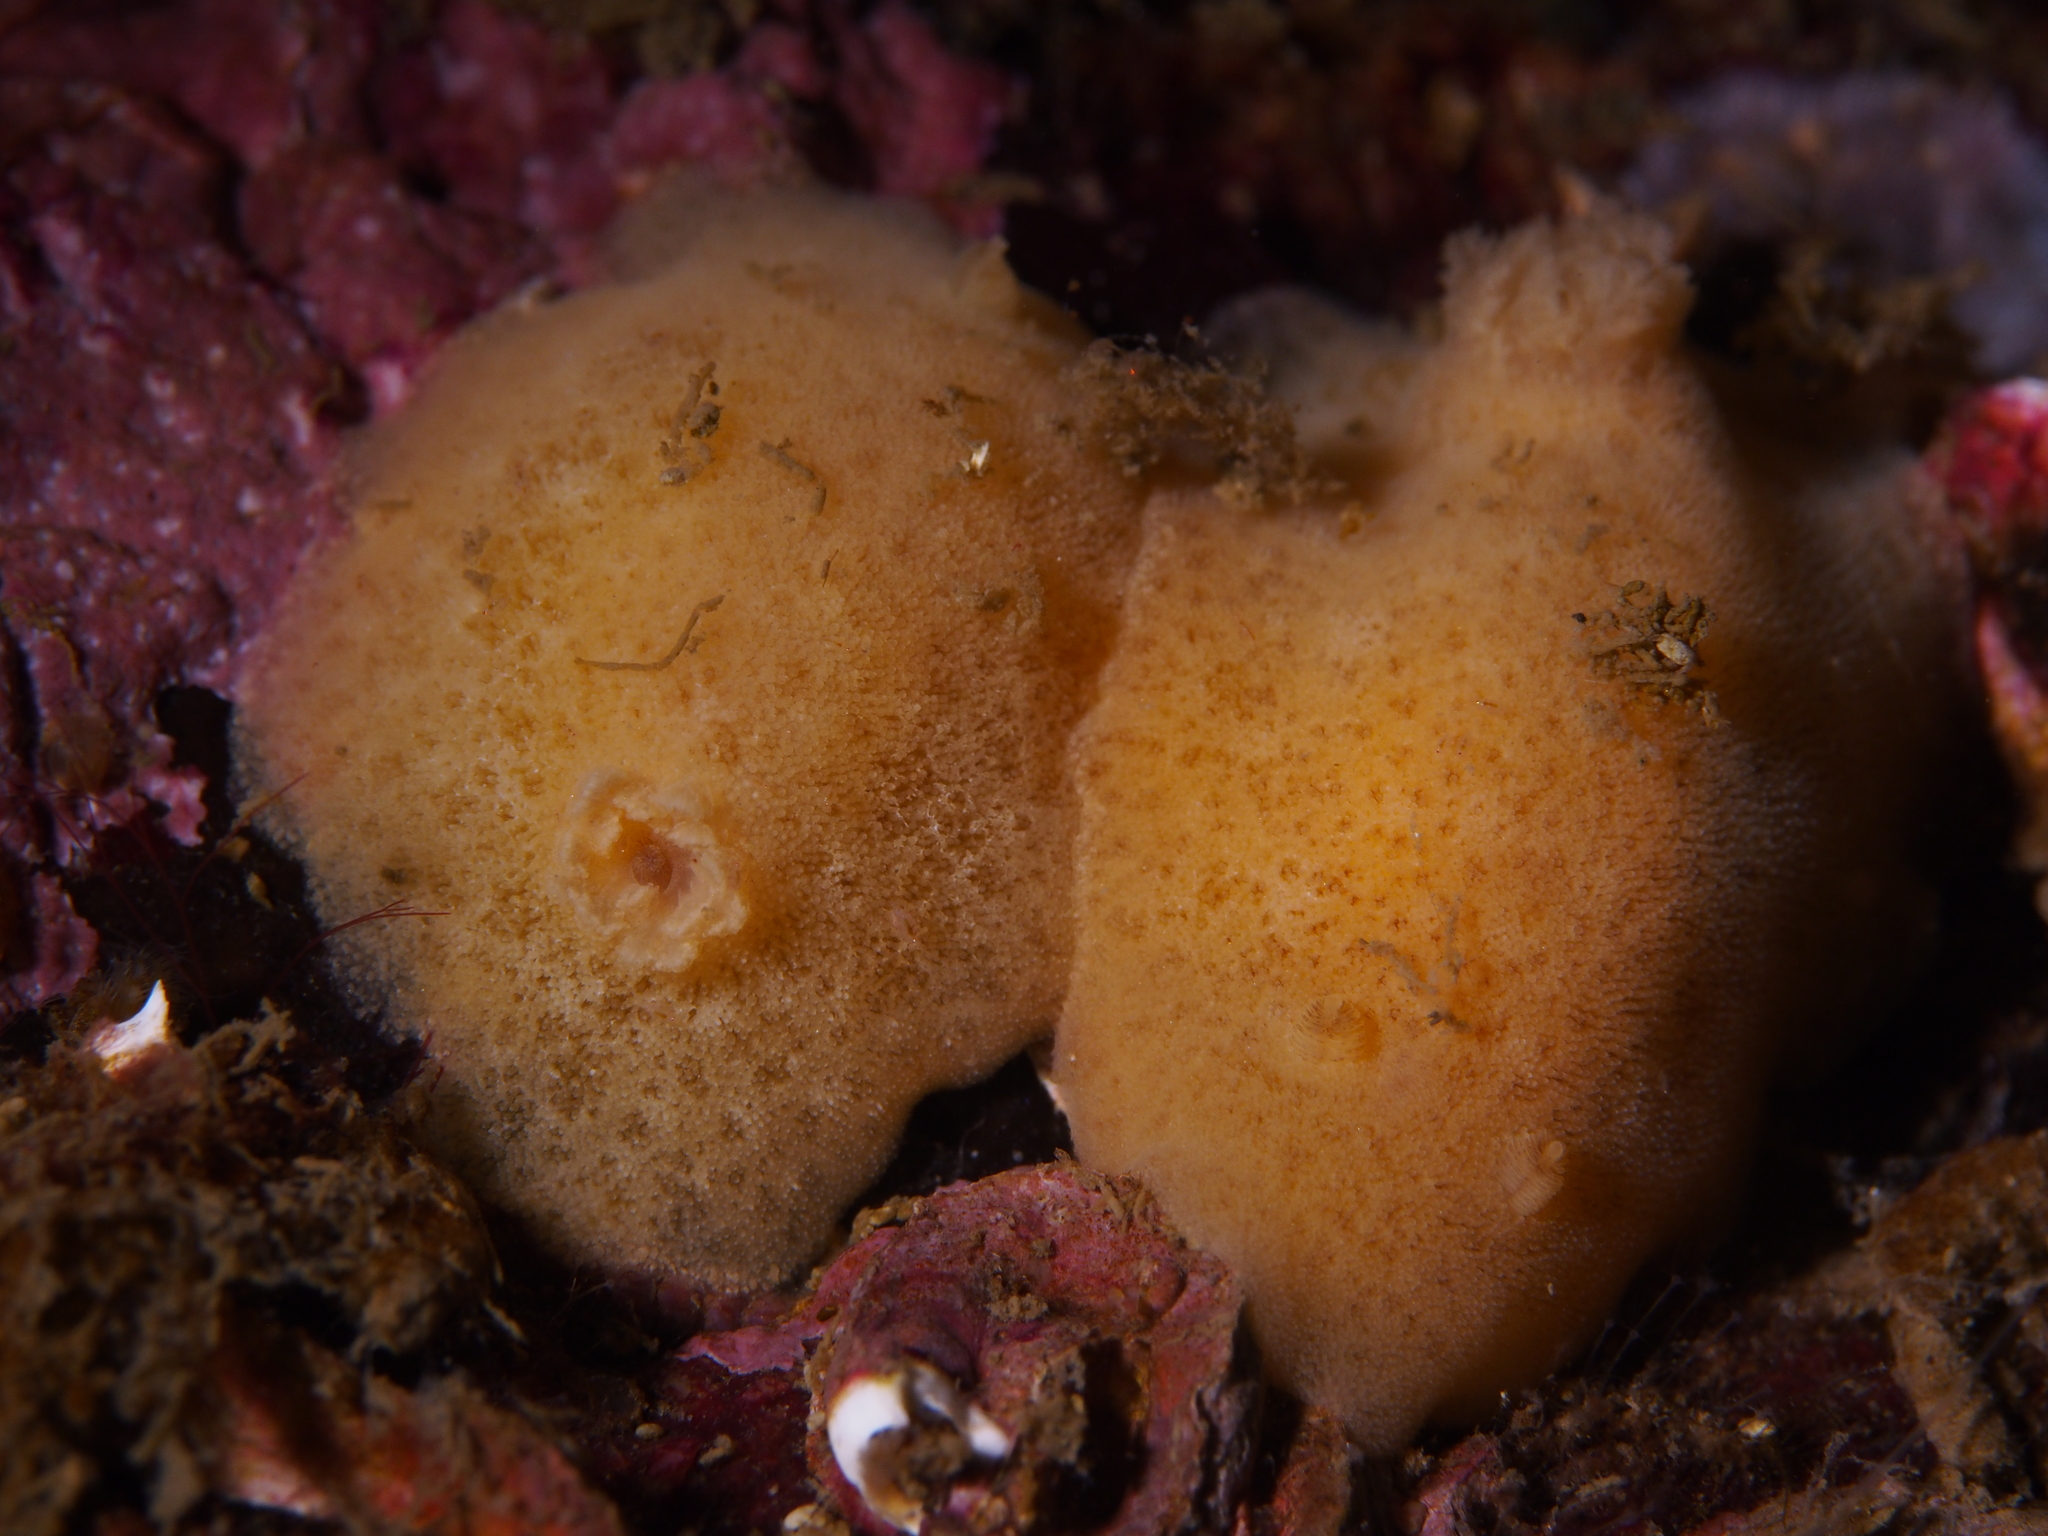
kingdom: Animalia
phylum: Mollusca
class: Gastropoda
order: Nudibranchia
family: Discodorididae
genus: Jorunna
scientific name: Jorunna tomentosa
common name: Grey sea slug
